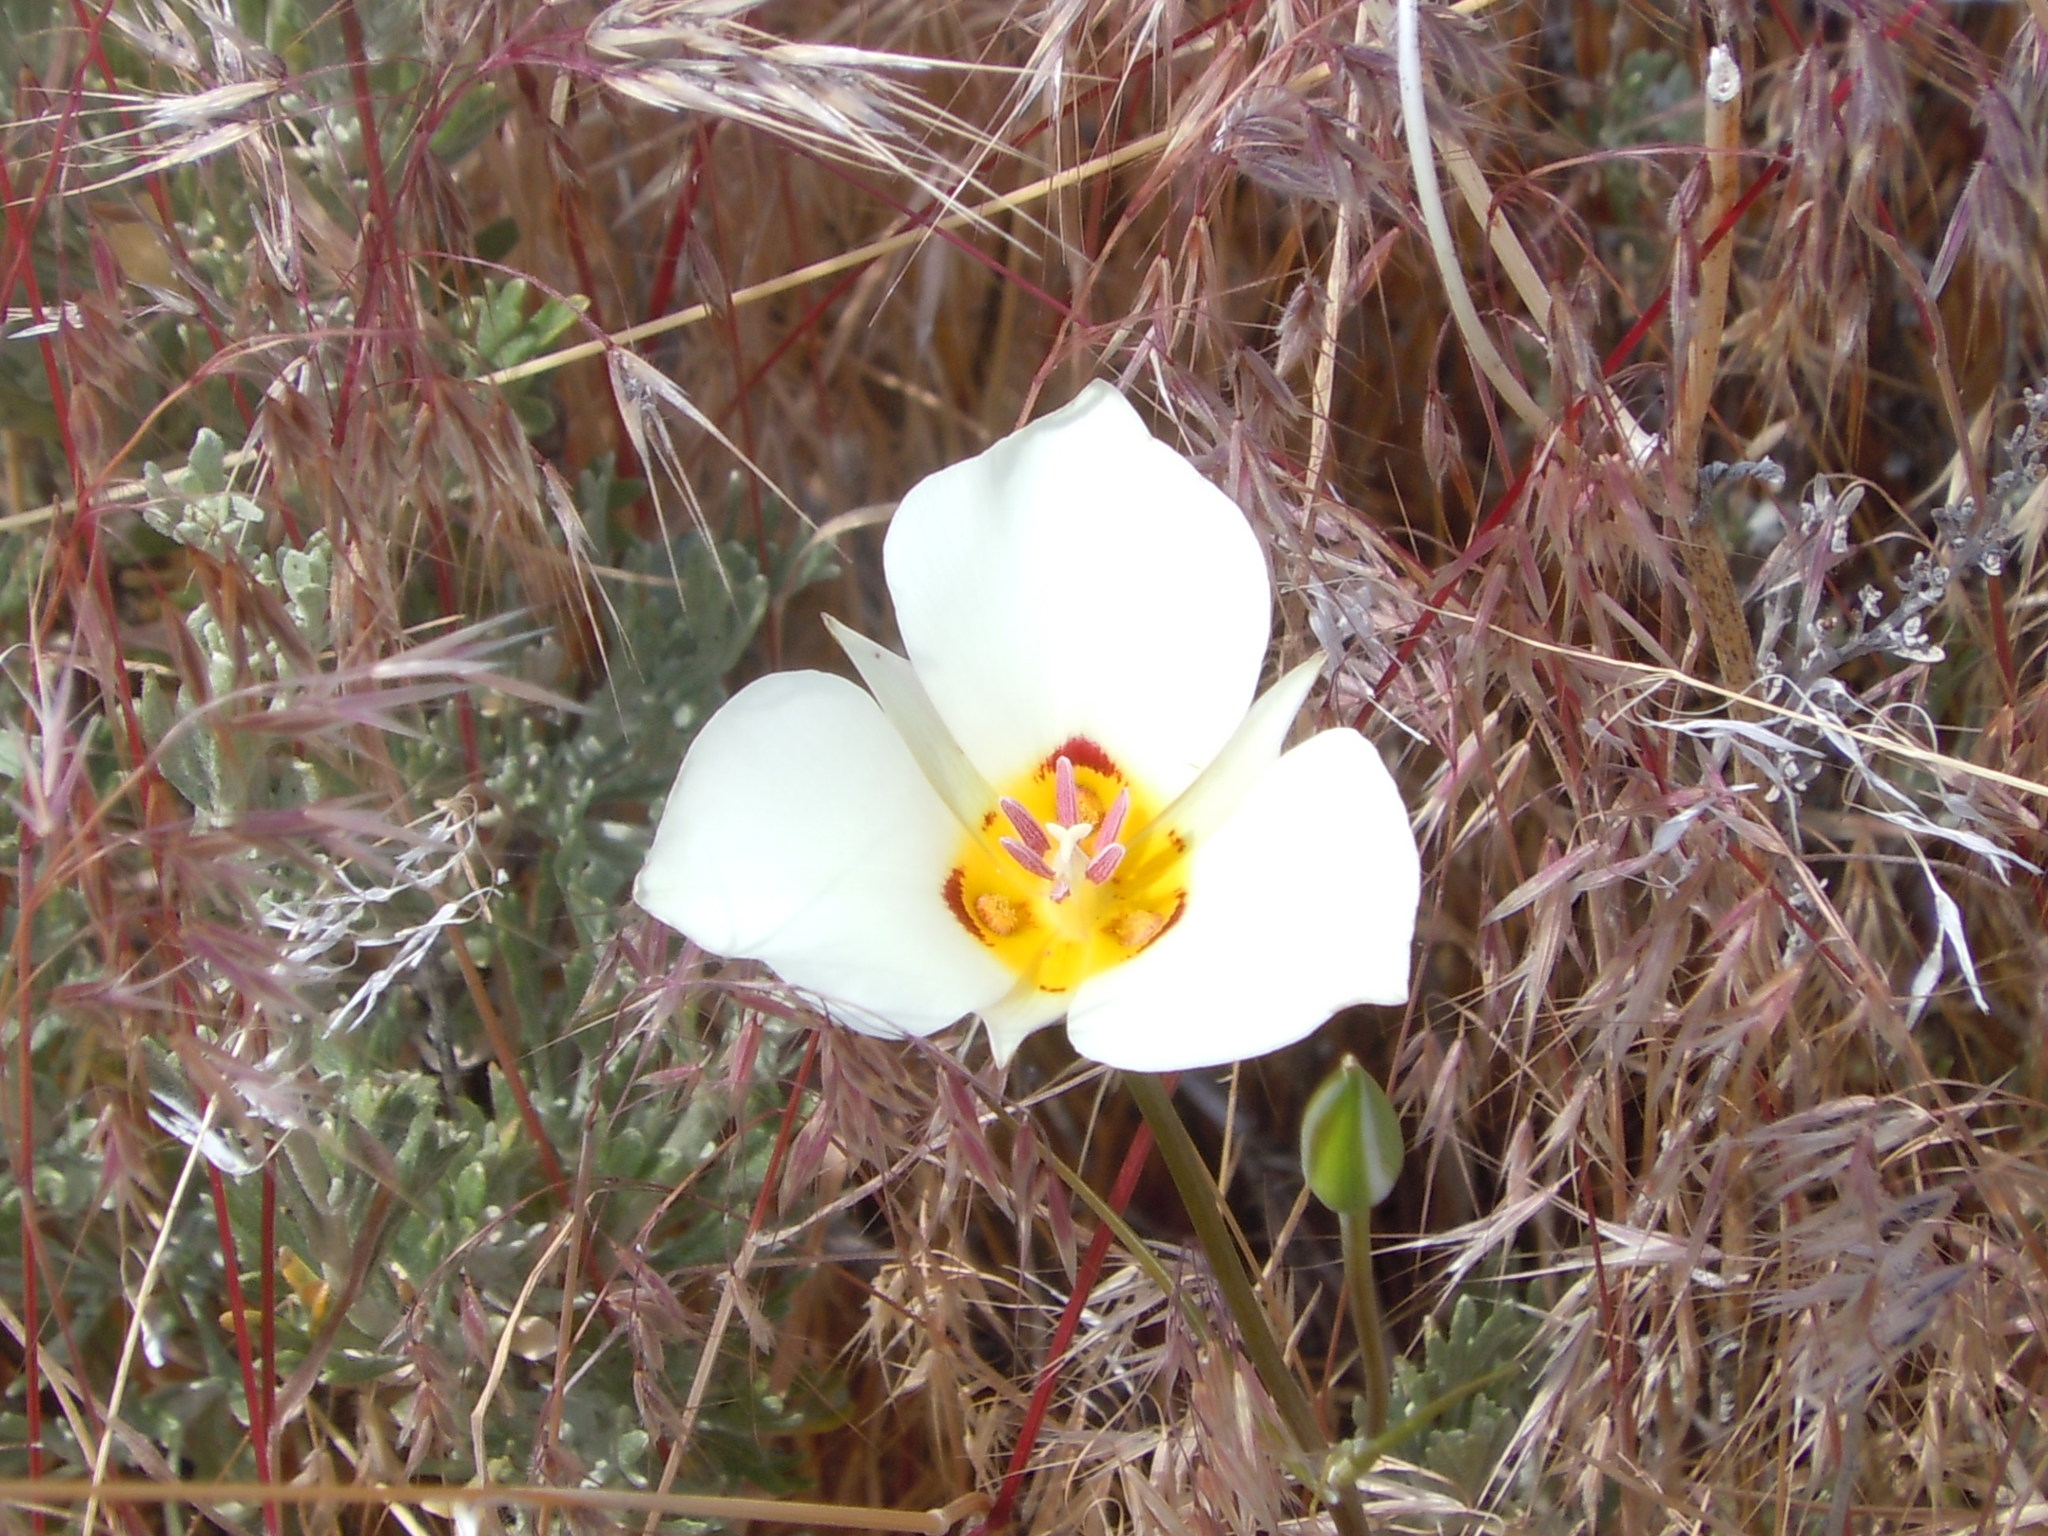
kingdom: Plantae
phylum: Tracheophyta
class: Liliopsida
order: Liliales
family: Liliaceae
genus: Calochortus
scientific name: Calochortus bruneaunis
